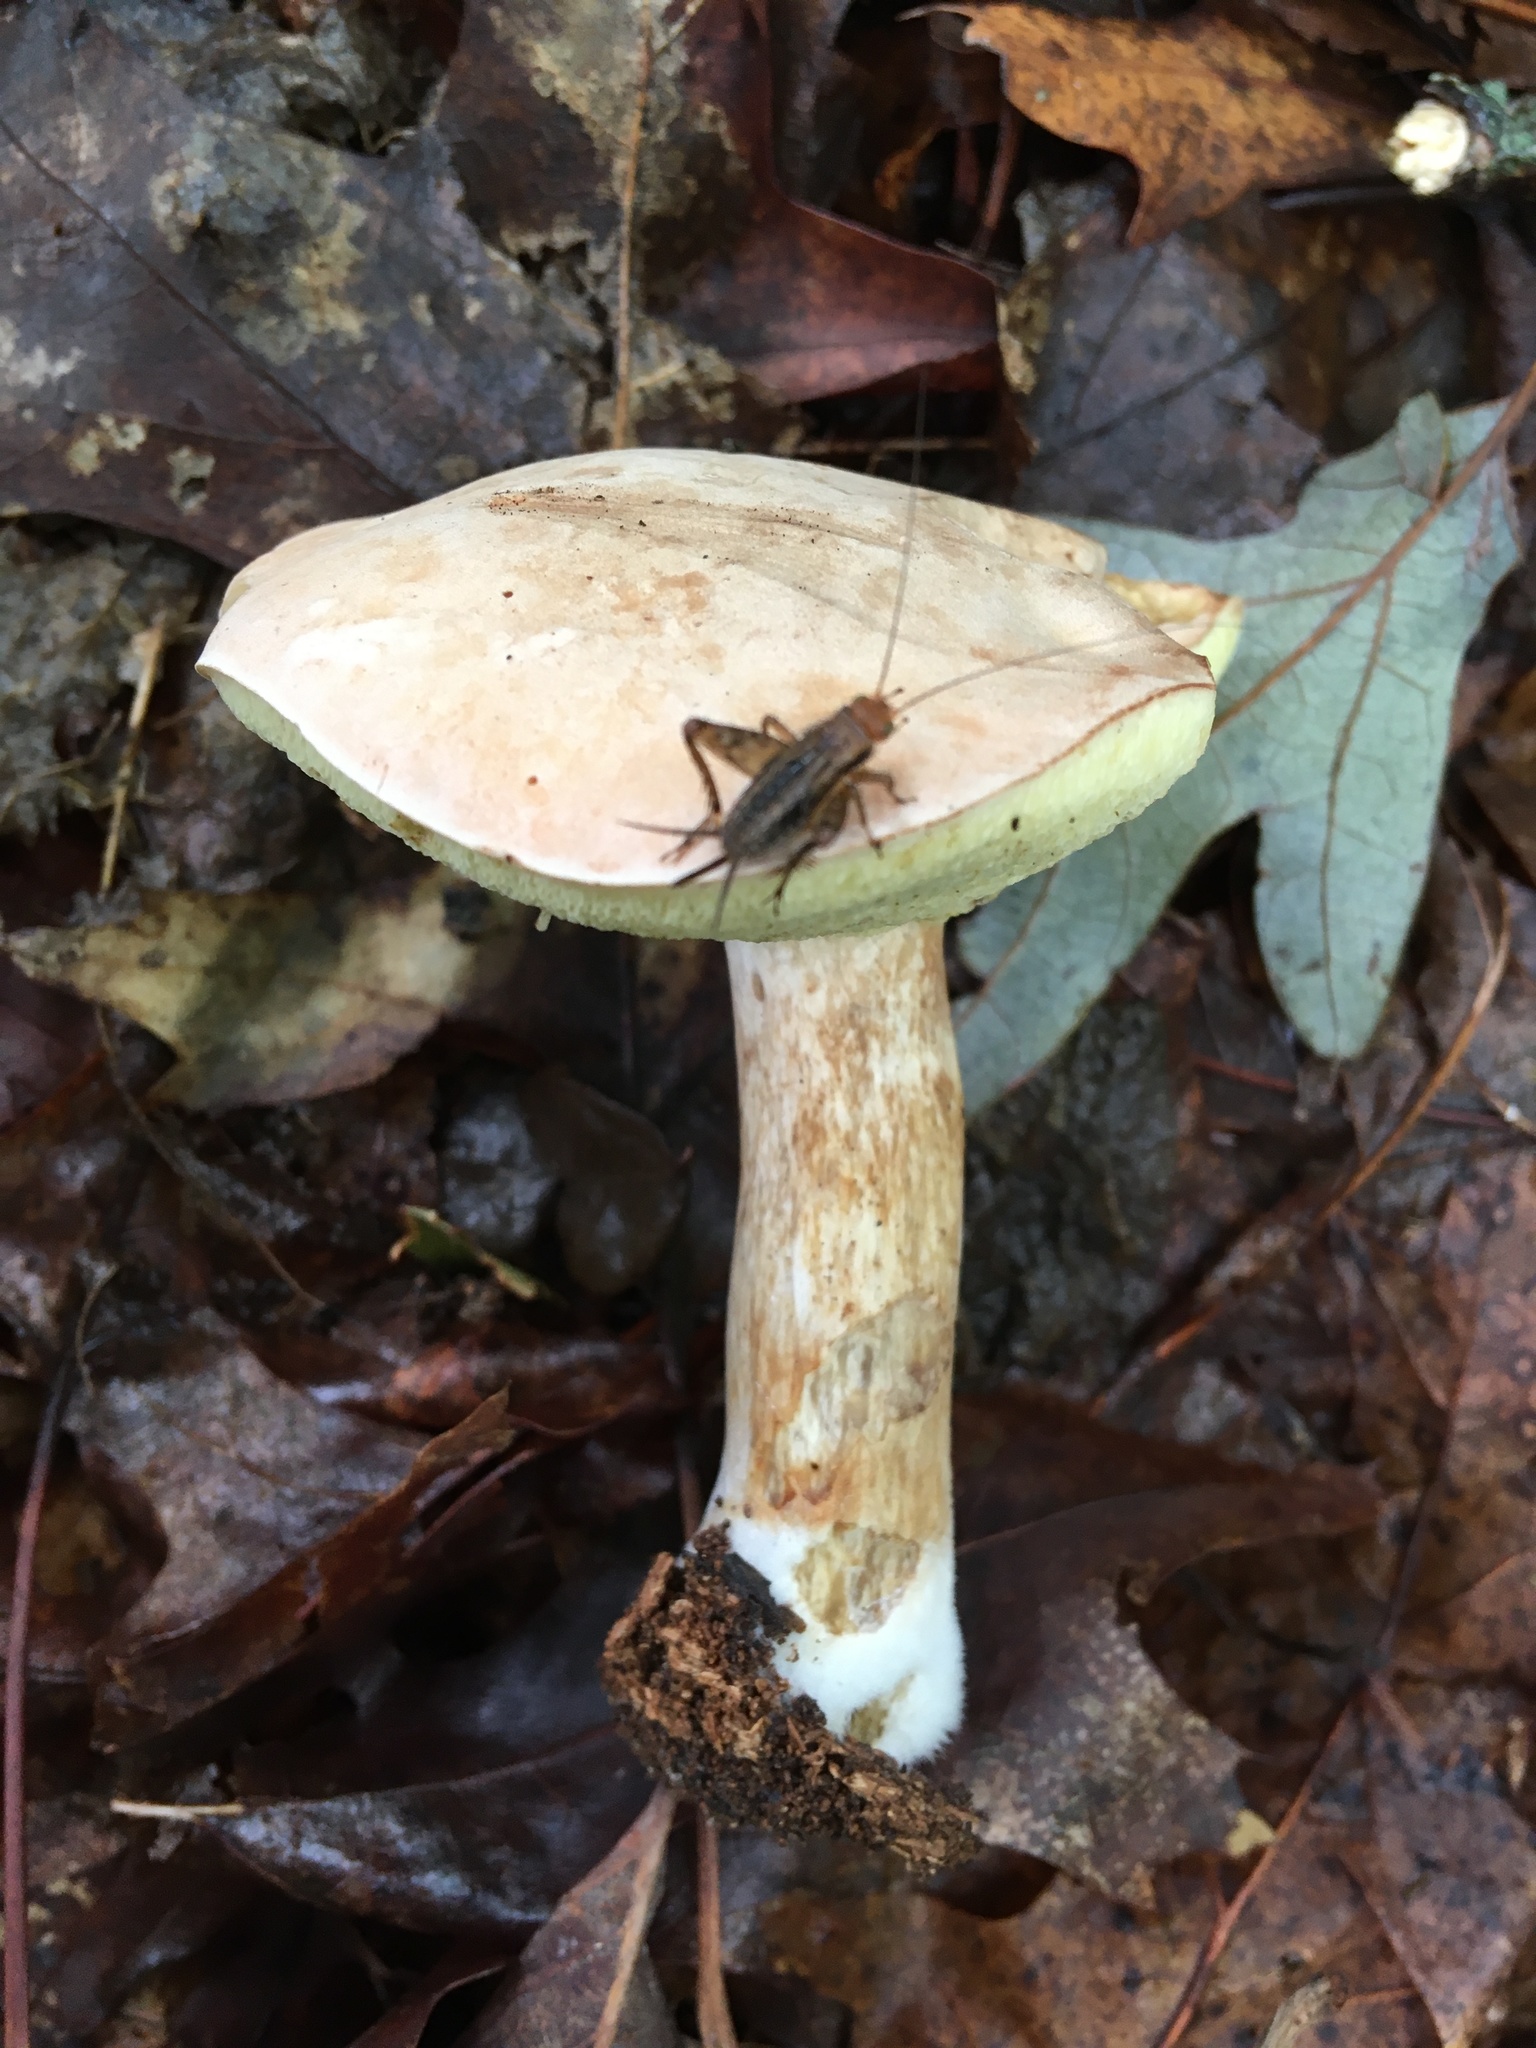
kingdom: Fungi
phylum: Basidiomycota
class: Agaricomycetes
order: Boletales
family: Boletaceae
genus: Cyanoboletus
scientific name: Cyanoboletus cyaneitinctus
